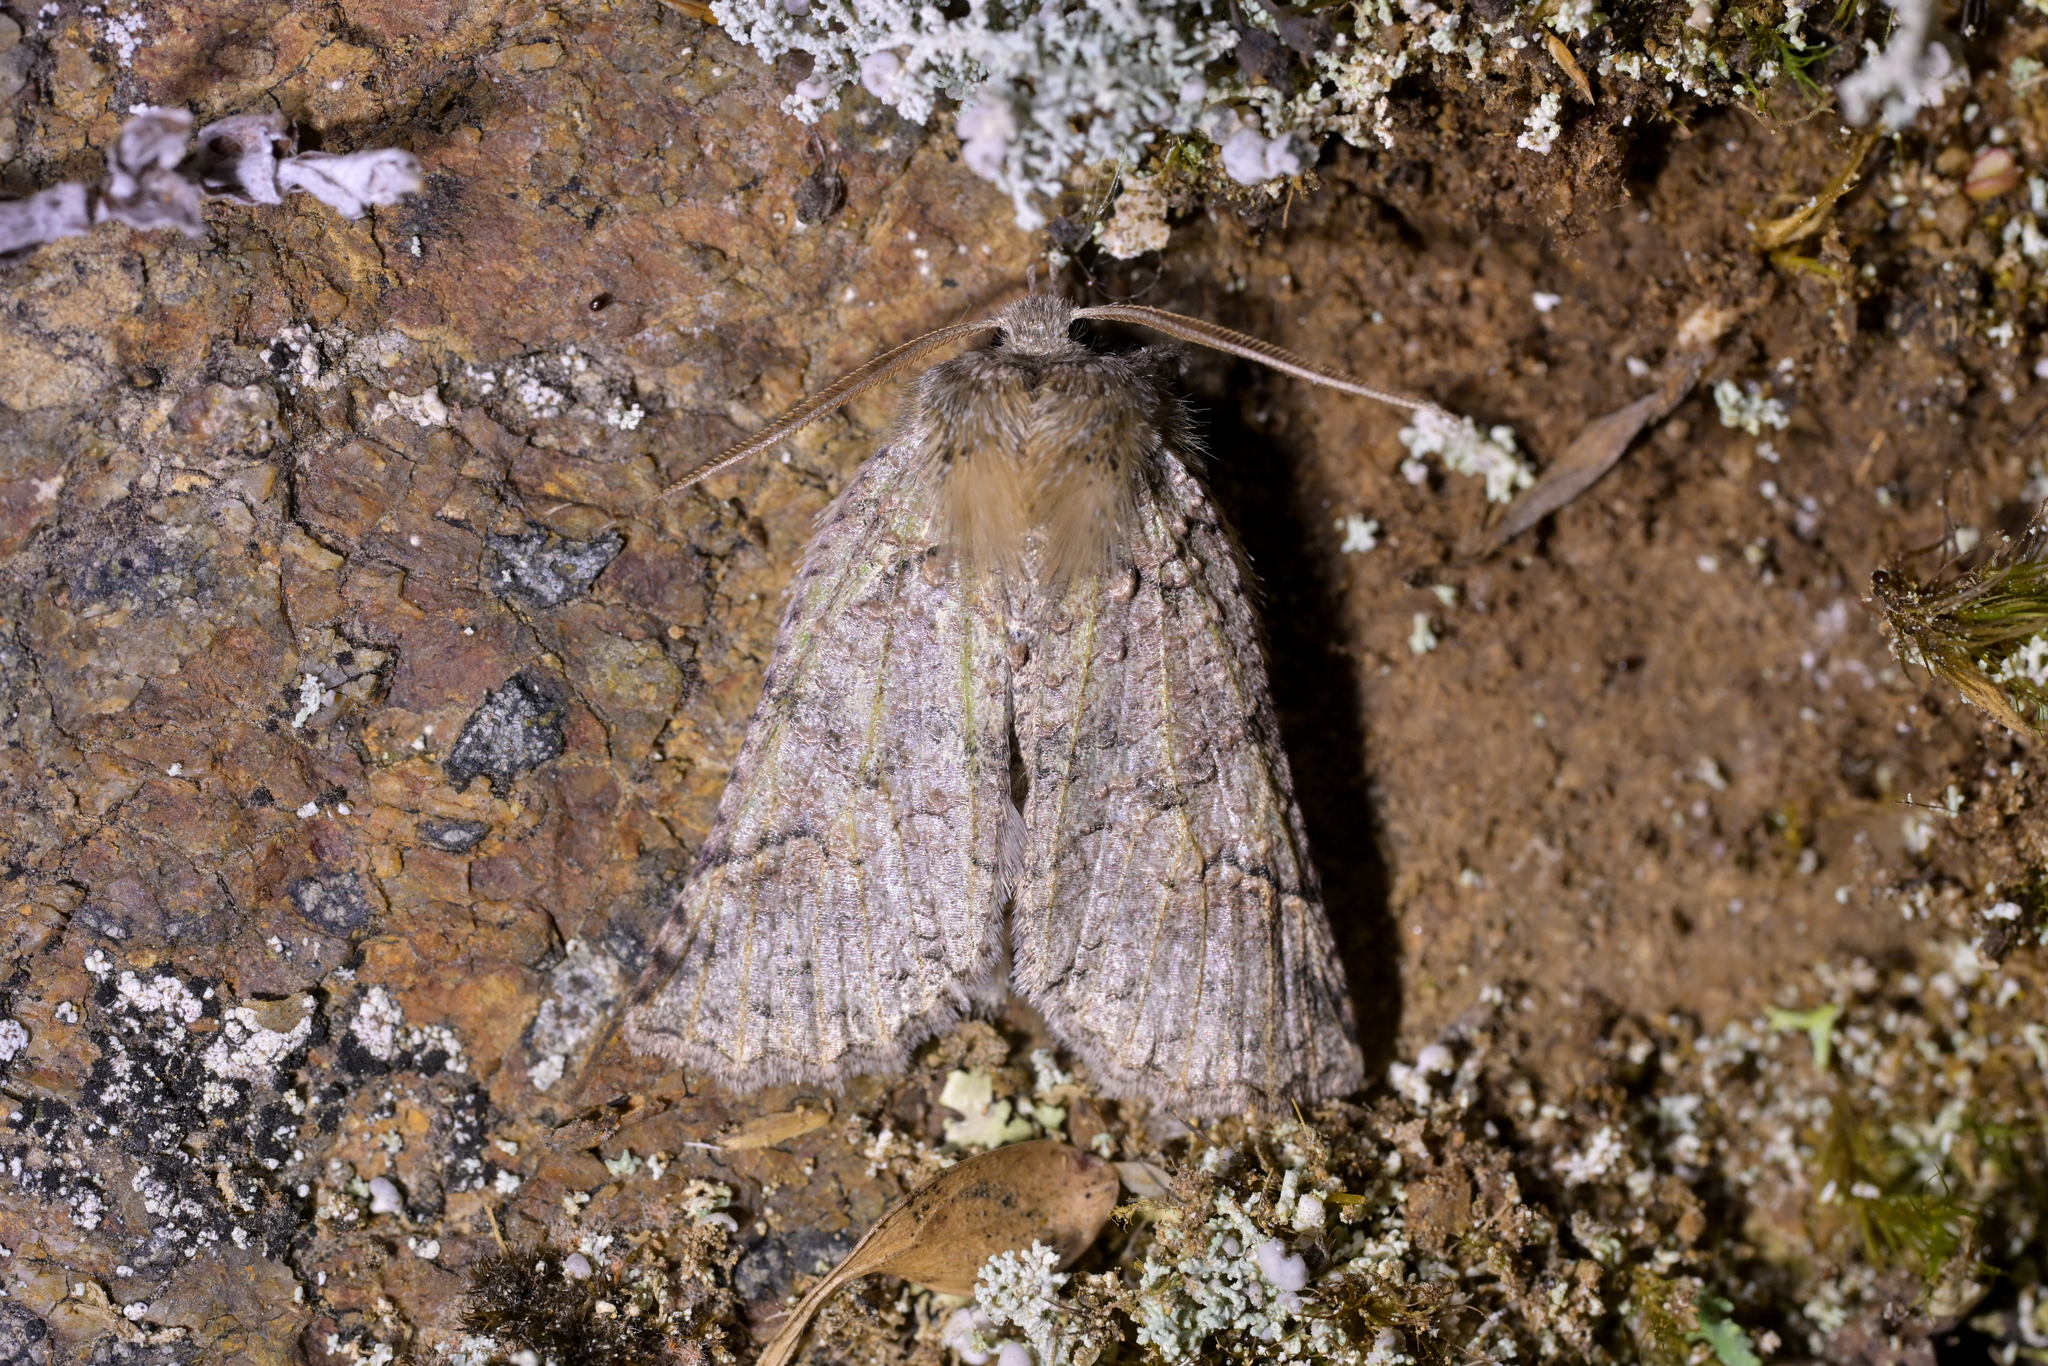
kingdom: Animalia
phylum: Arthropoda
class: Insecta
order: Lepidoptera
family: Geometridae
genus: Declana
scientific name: Declana floccosa
